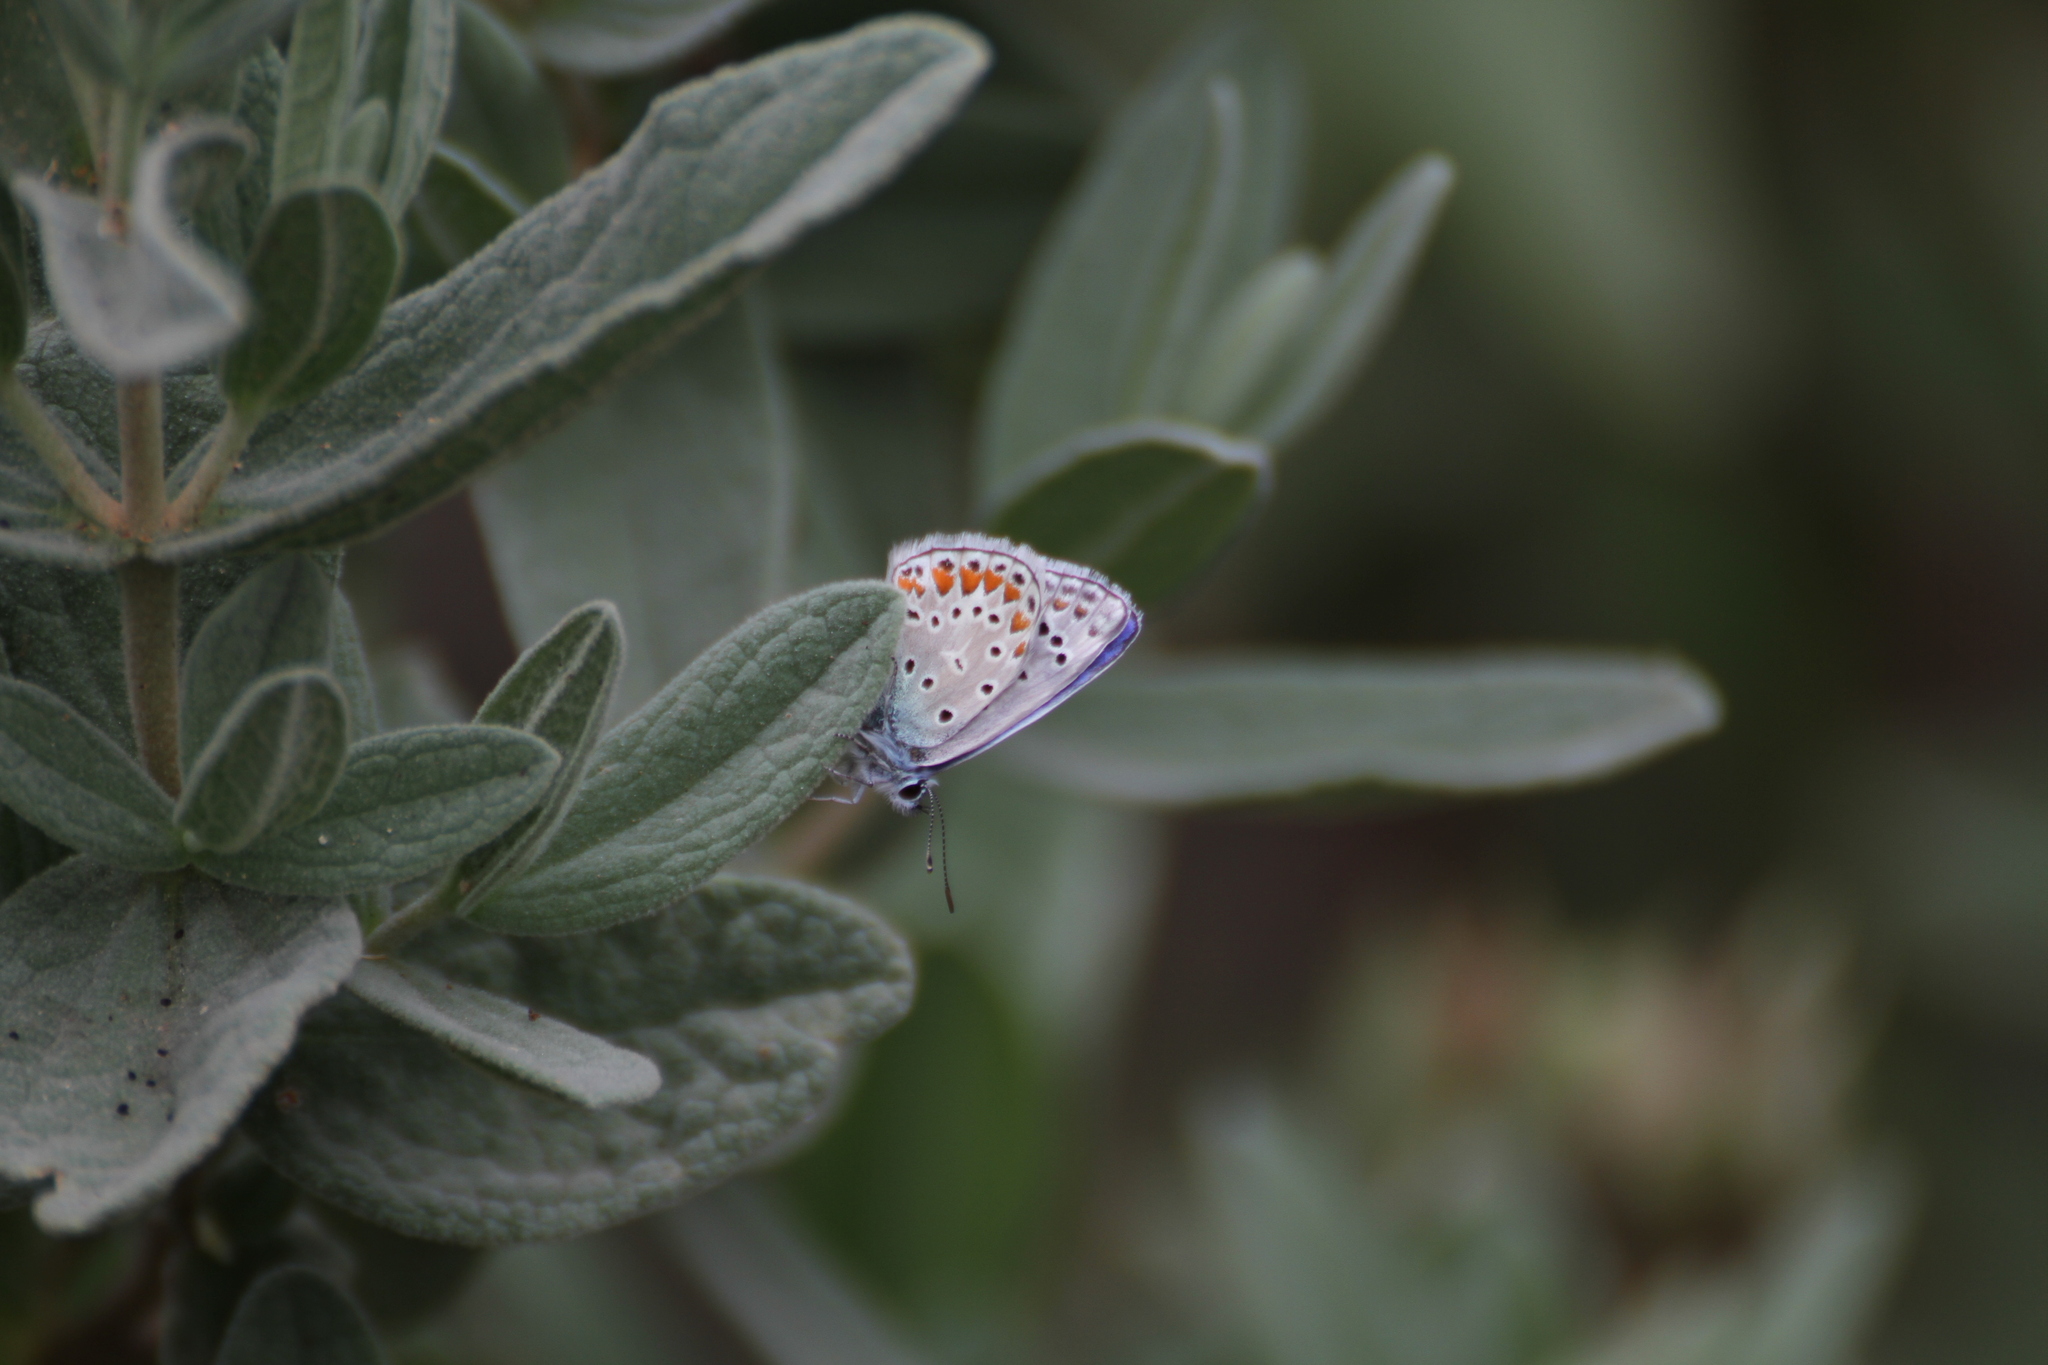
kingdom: Animalia
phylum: Arthropoda
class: Insecta
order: Lepidoptera
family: Lycaenidae
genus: Polyommatus
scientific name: Polyommatus icarus
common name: Common blue
